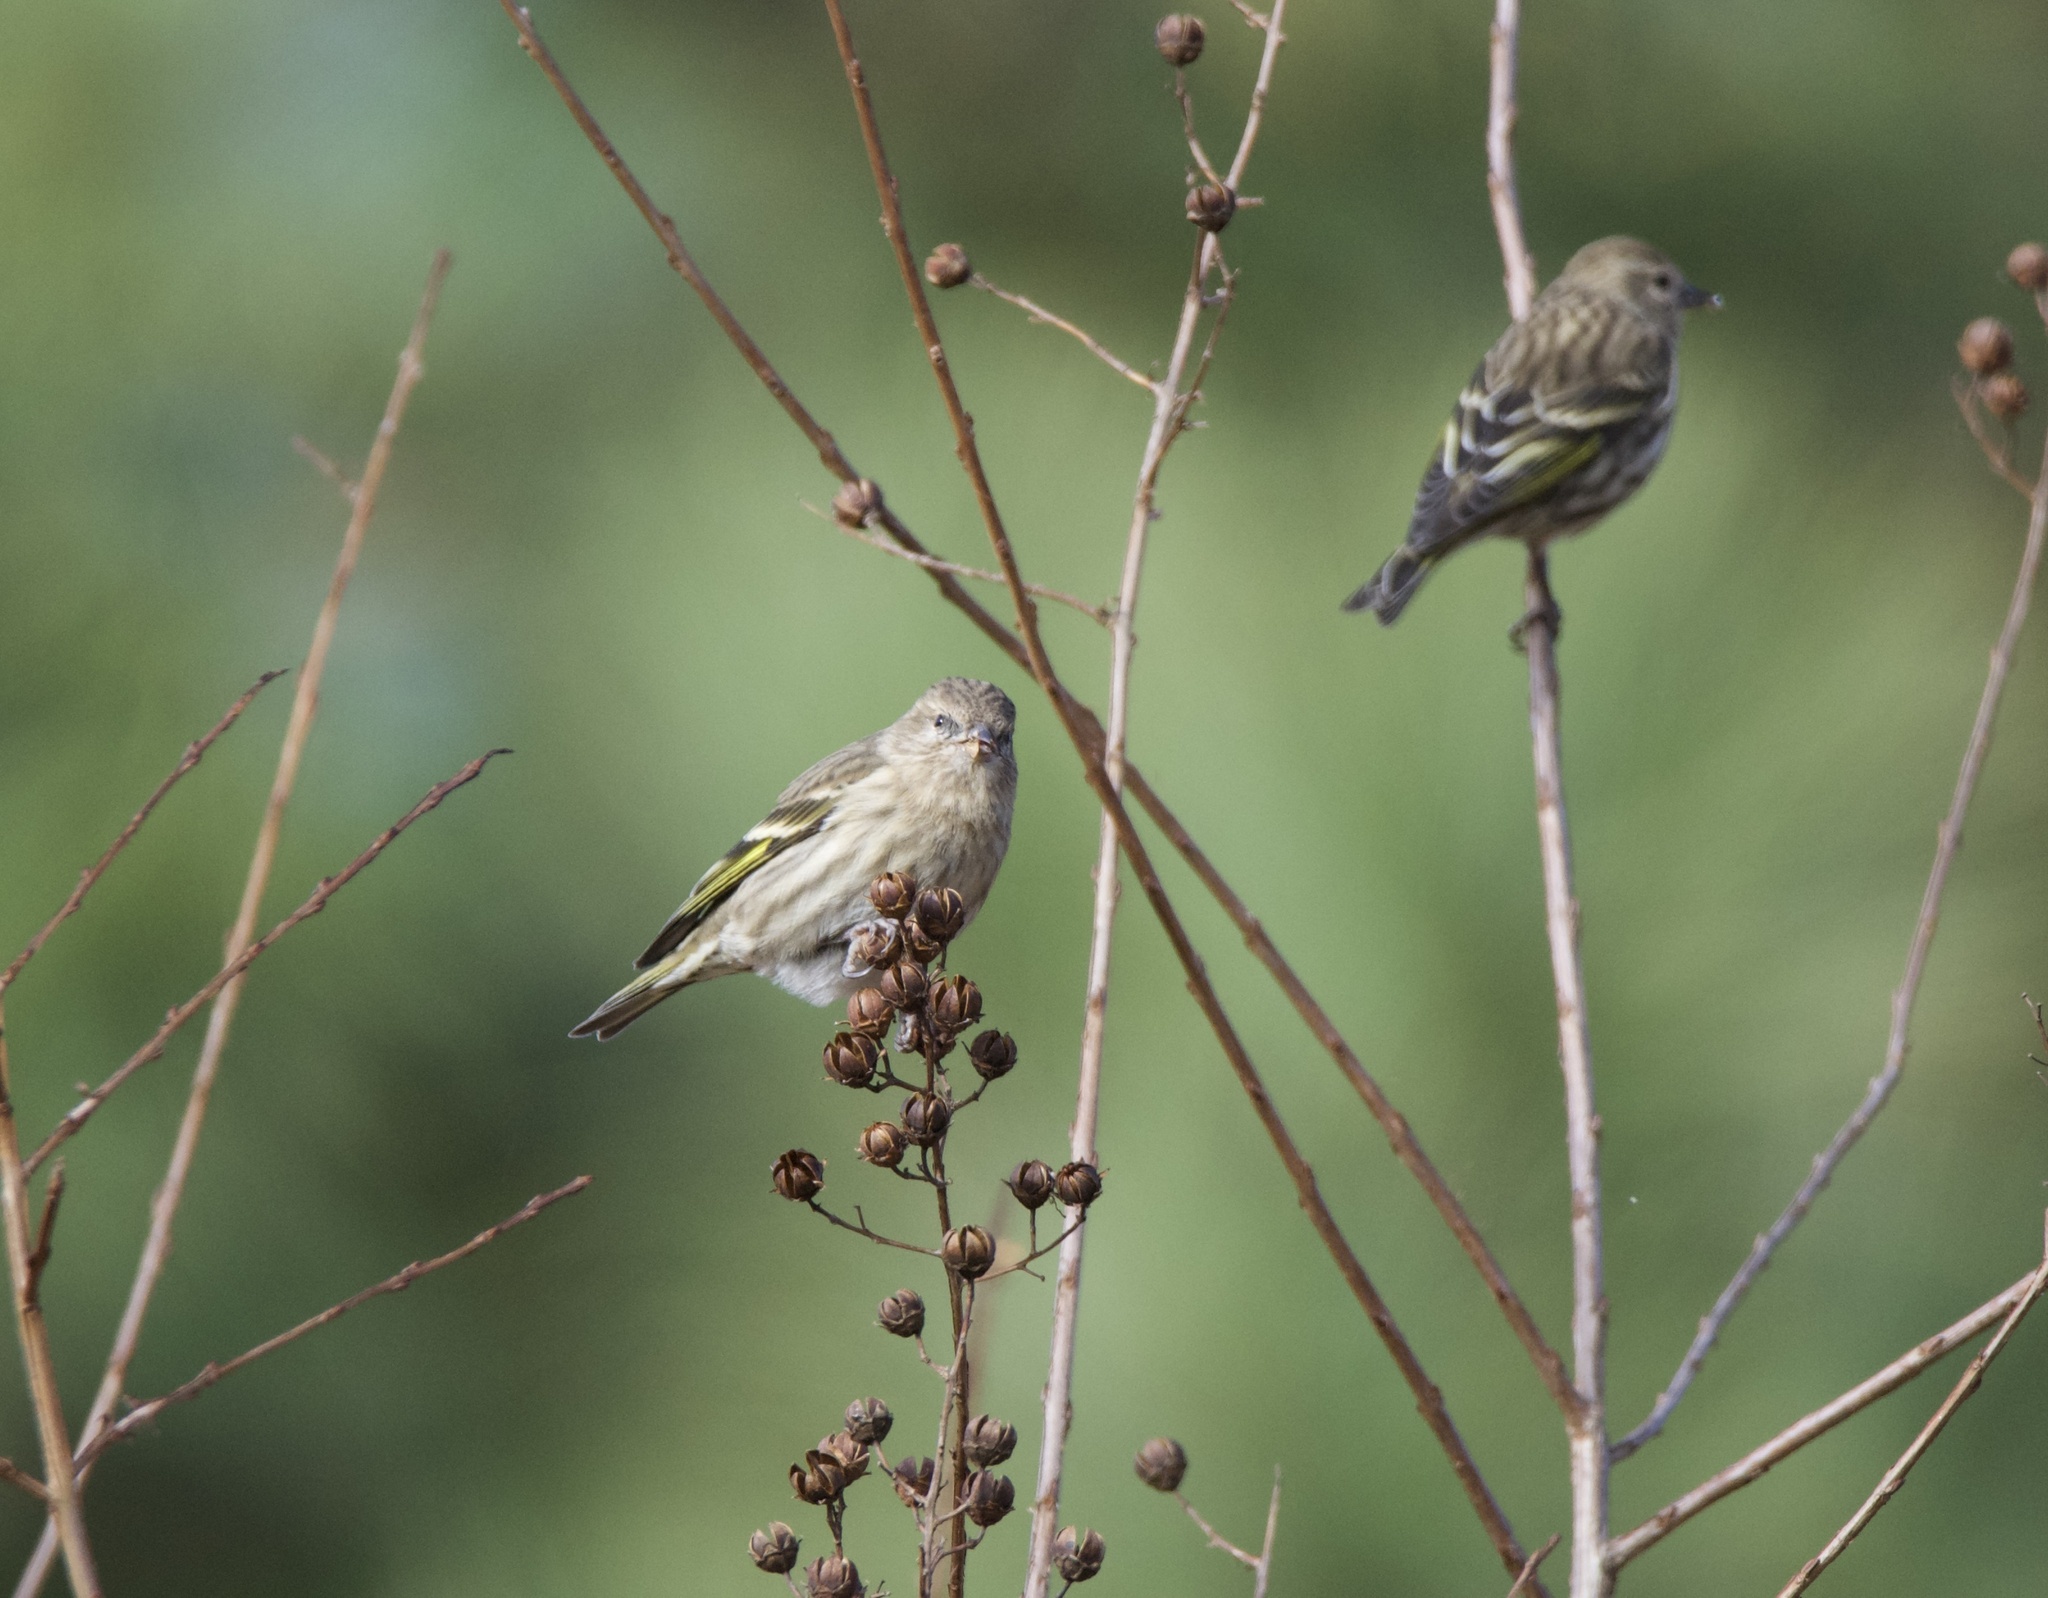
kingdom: Animalia
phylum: Chordata
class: Aves
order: Passeriformes
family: Fringillidae
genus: Spinus
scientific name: Spinus pinus
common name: Pine siskin
